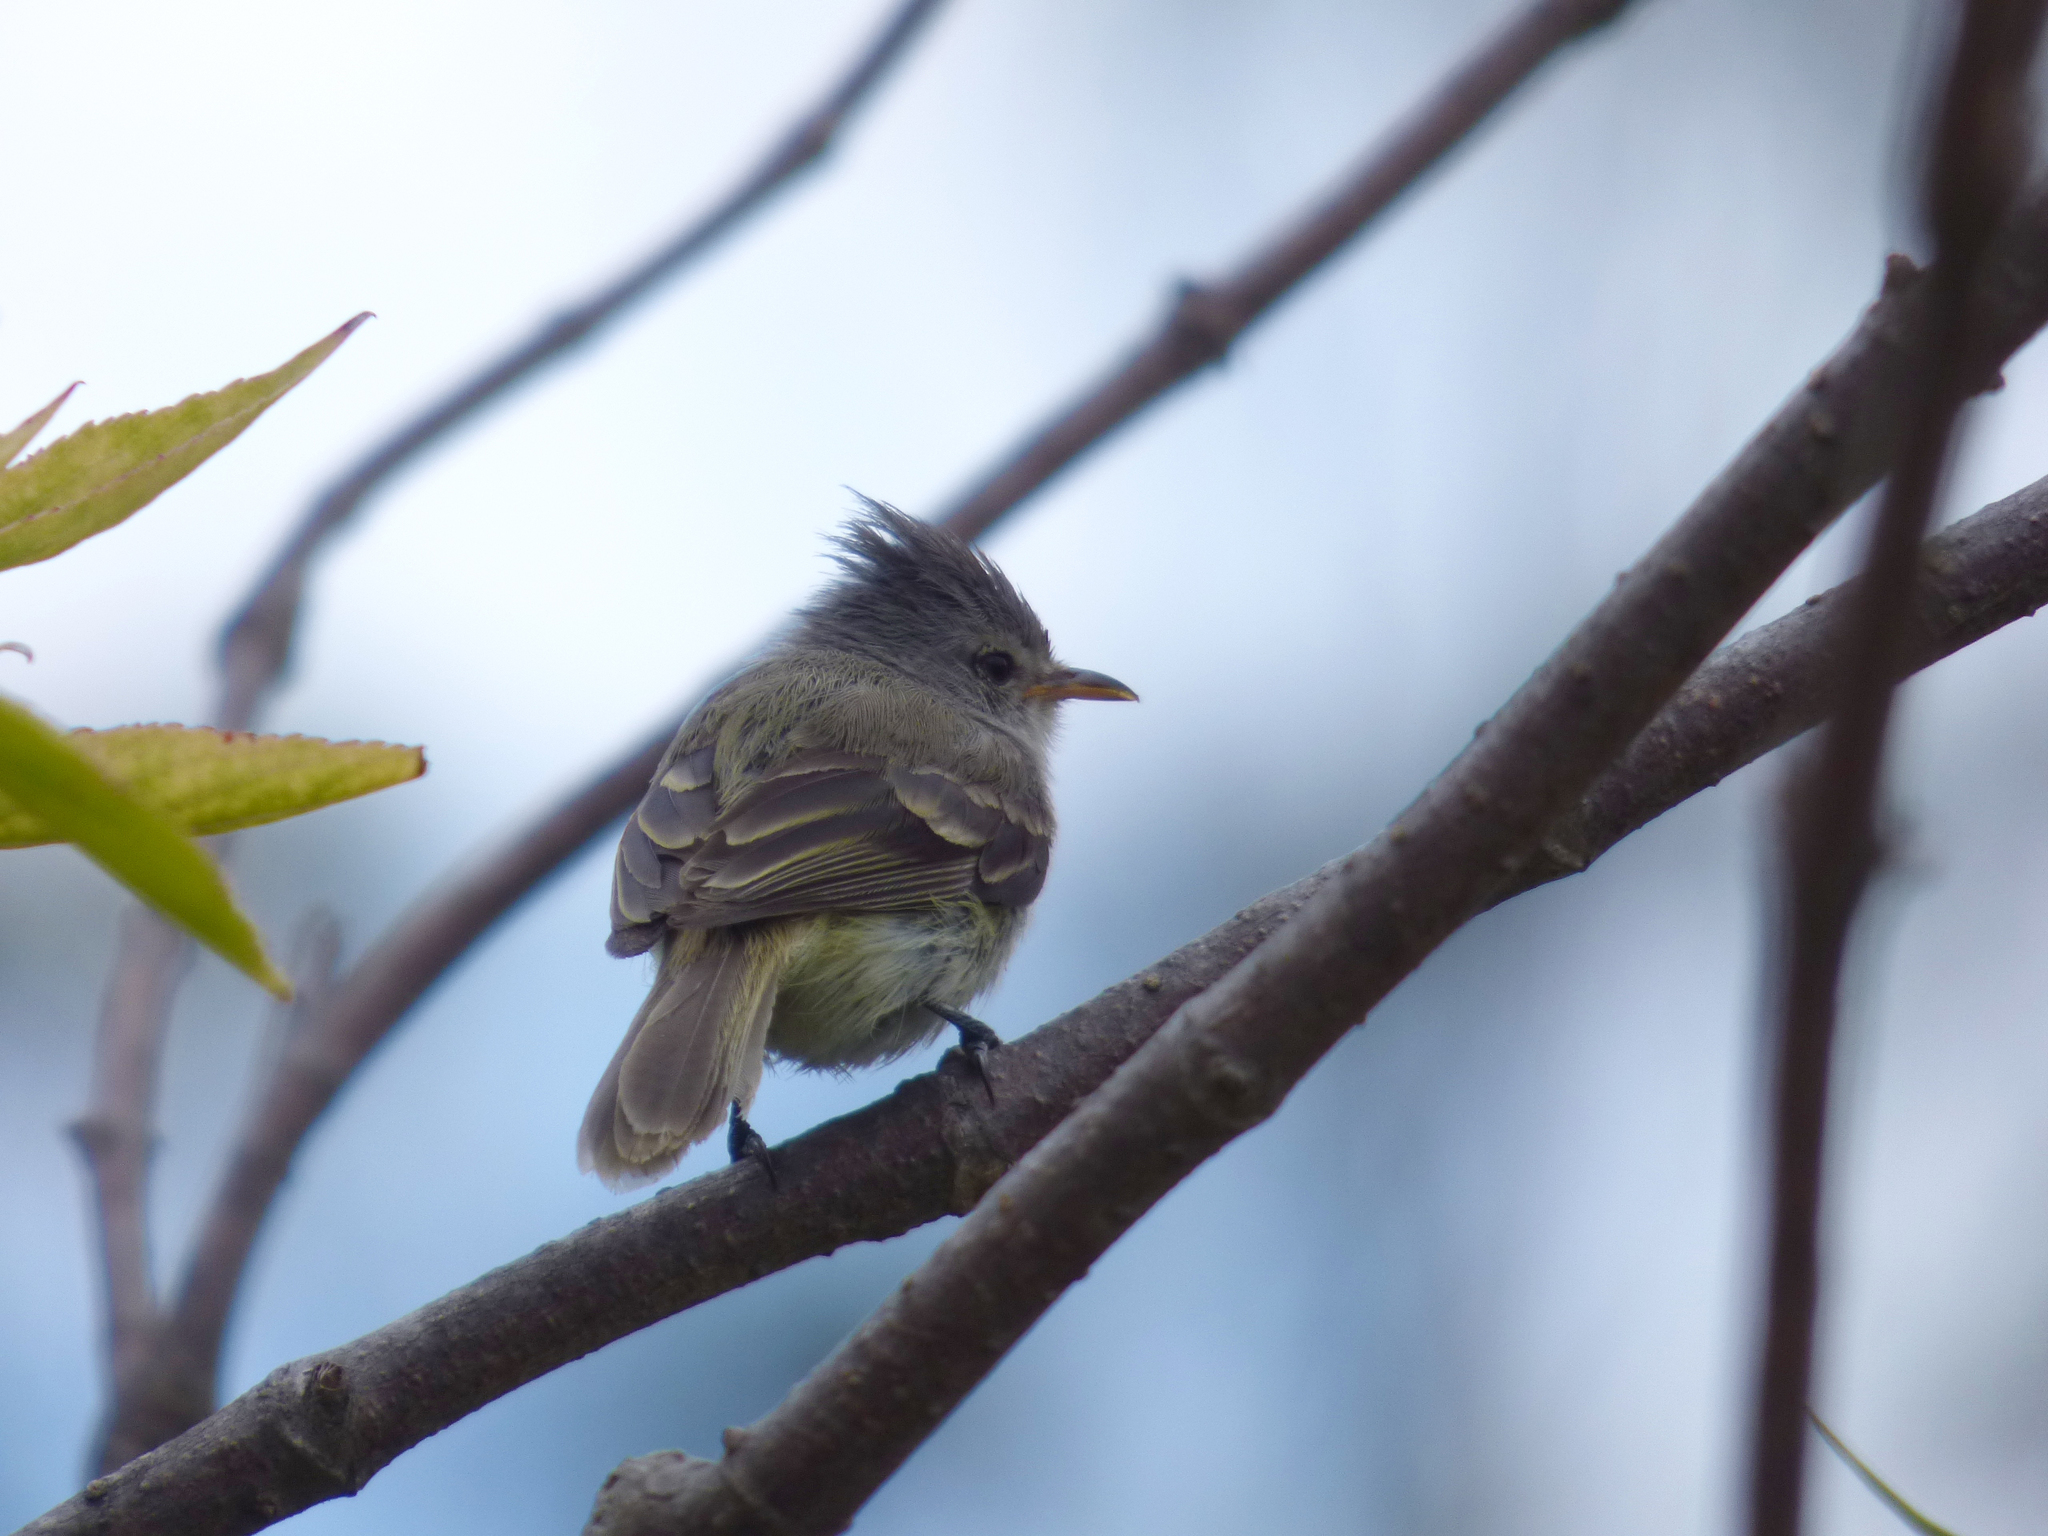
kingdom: Animalia
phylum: Chordata
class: Aves
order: Passeriformes
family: Tyrannidae
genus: Camptostoma
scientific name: Camptostoma obsoletum
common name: Southern beardless-tyrannulet
